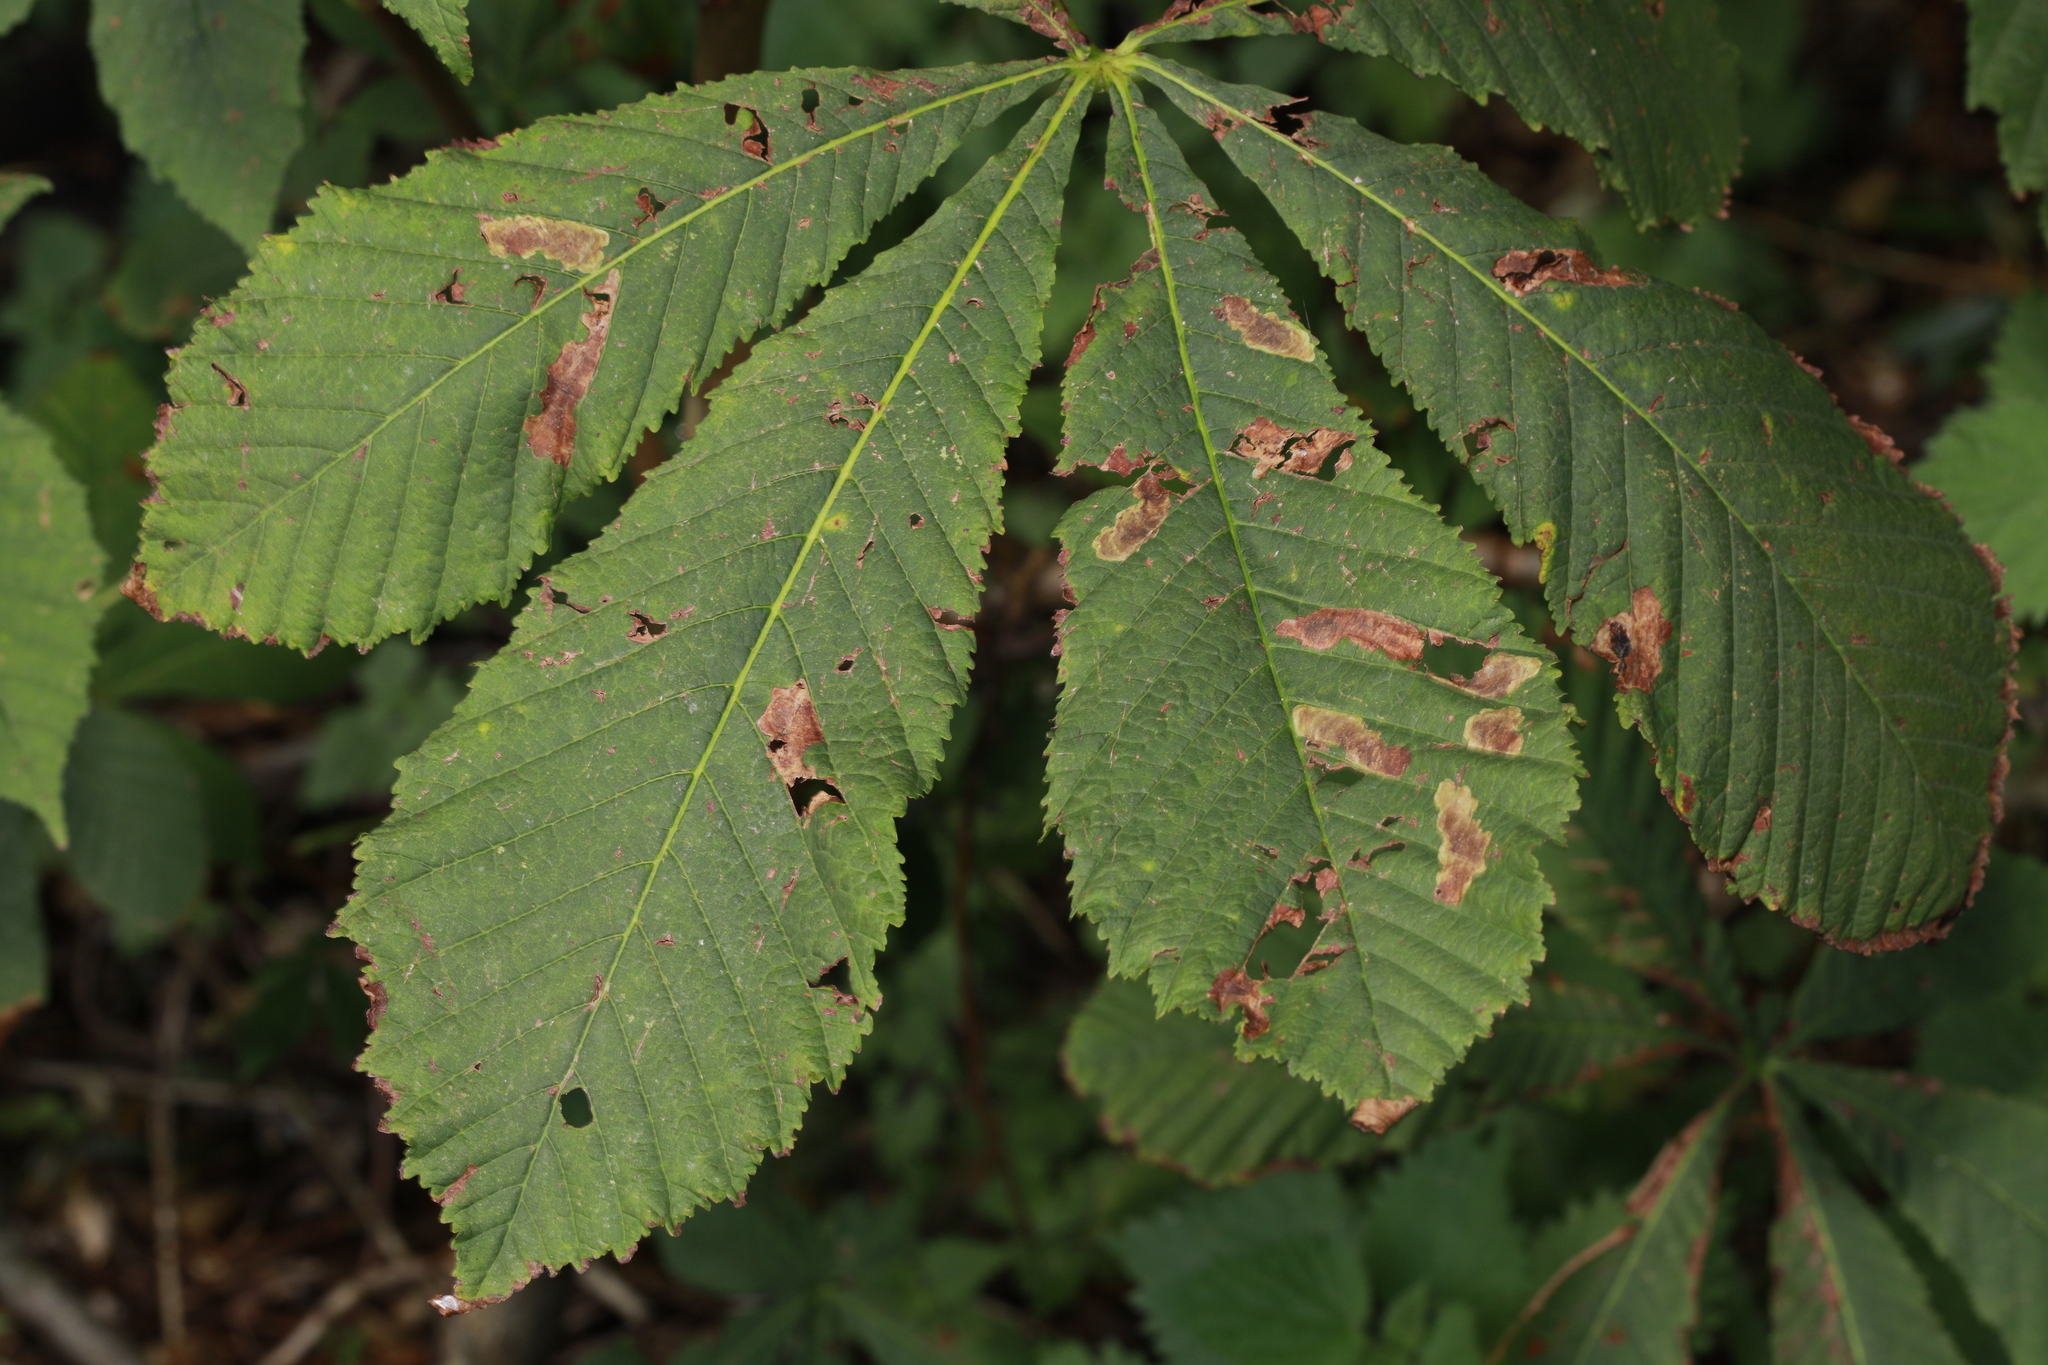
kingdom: Animalia
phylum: Arthropoda
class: Insecta
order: Lepidoptera
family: Gracillariidae
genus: Cameraria
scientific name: Cameraria ohridella
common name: Horse-chestnut leaf-miner
